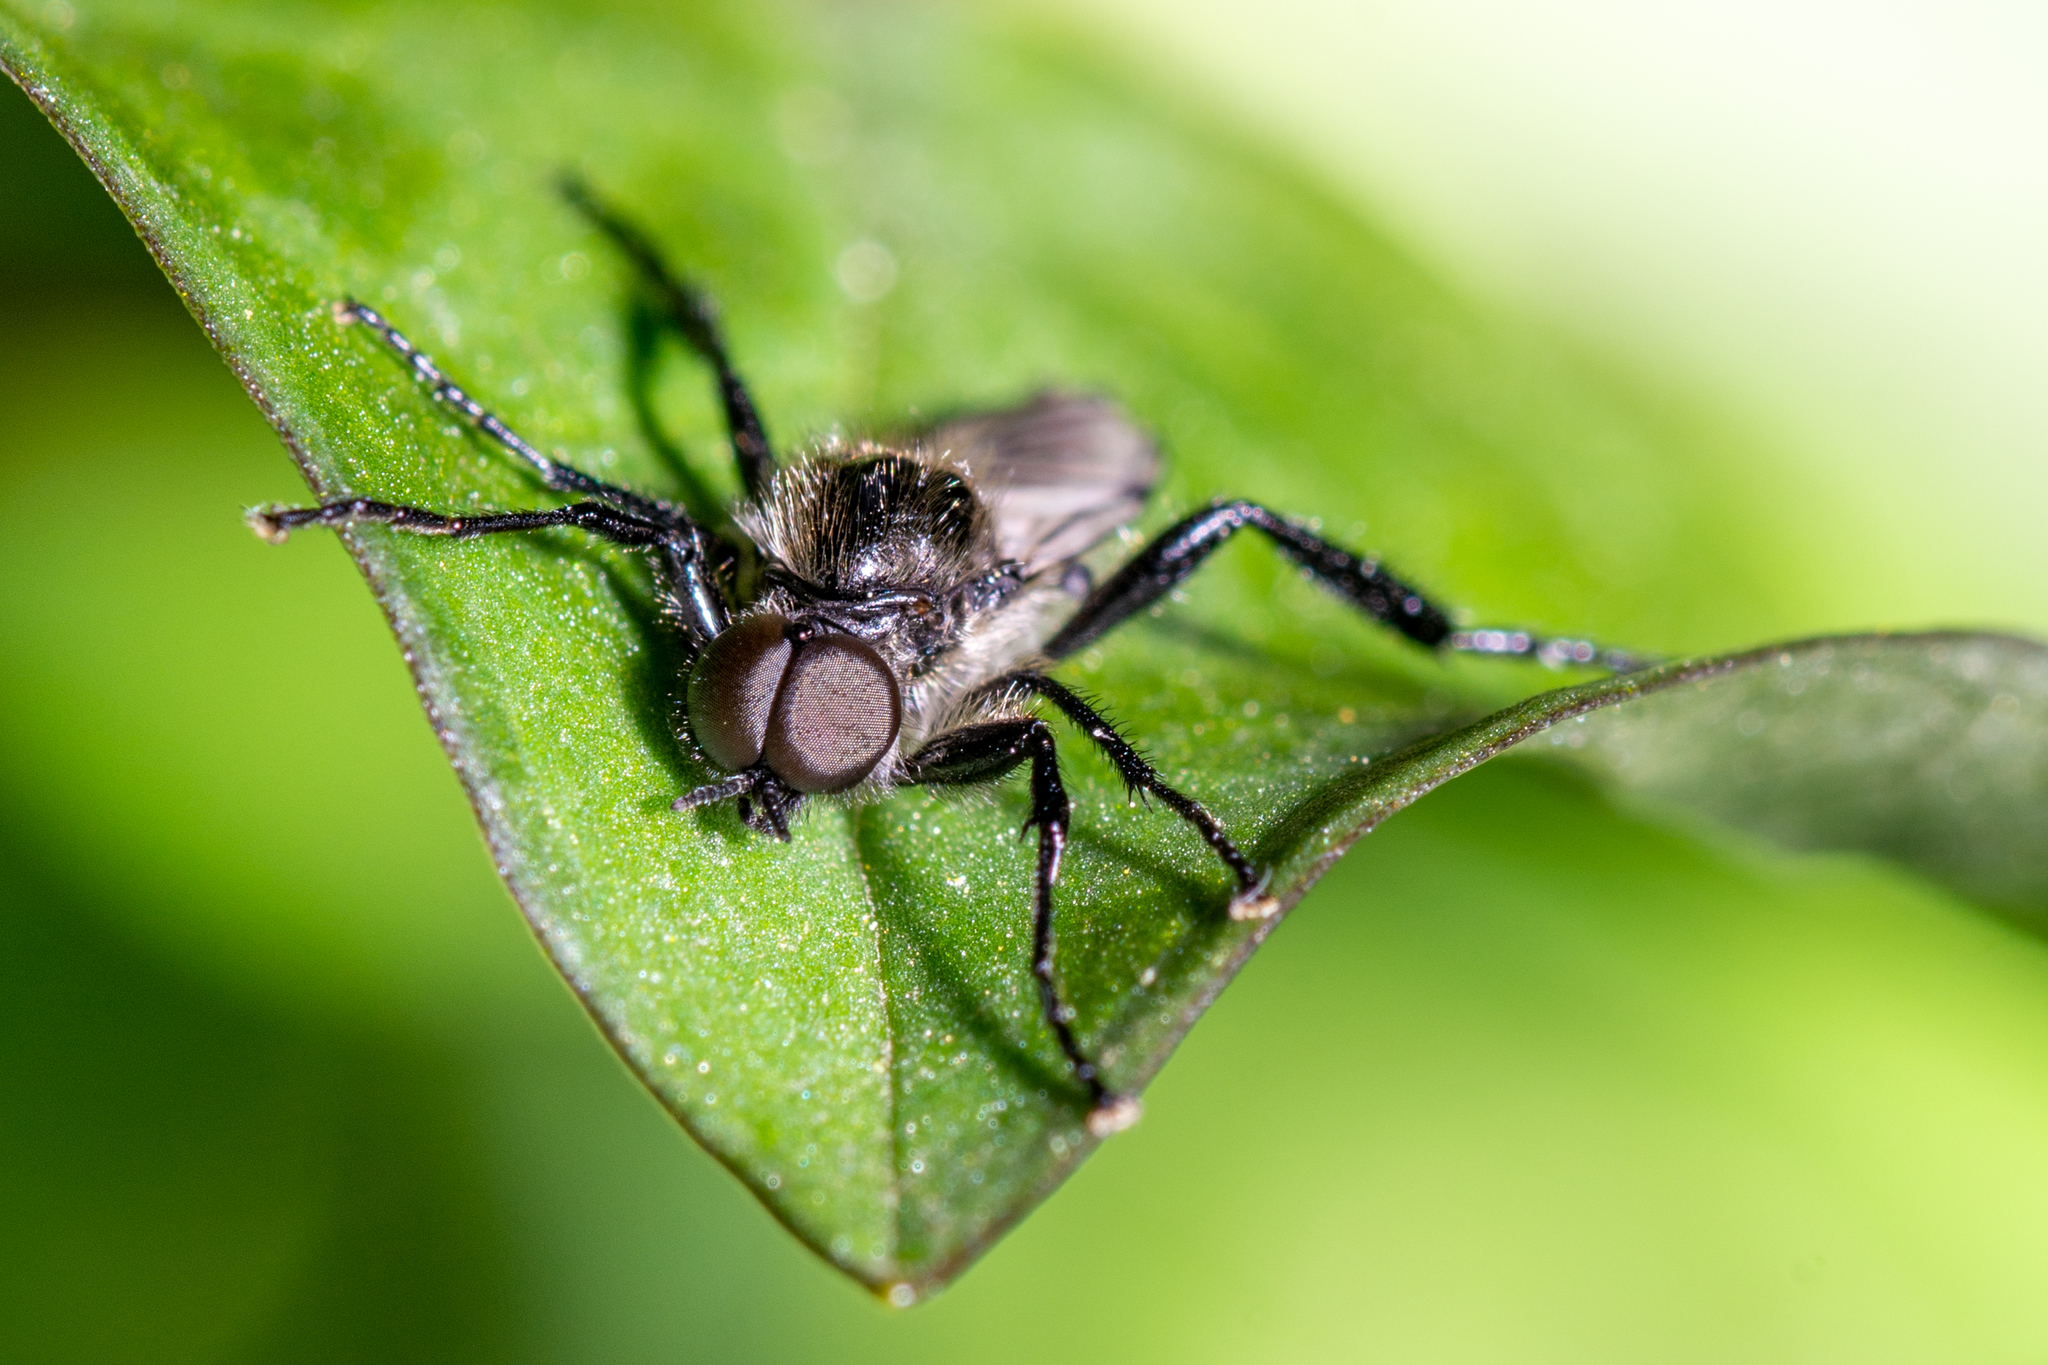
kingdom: Animalia
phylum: Arthropoda
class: Insecta
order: Diptera
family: Bibionidae
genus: Bibio
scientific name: Bibio albipennis
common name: White-winged march fly
